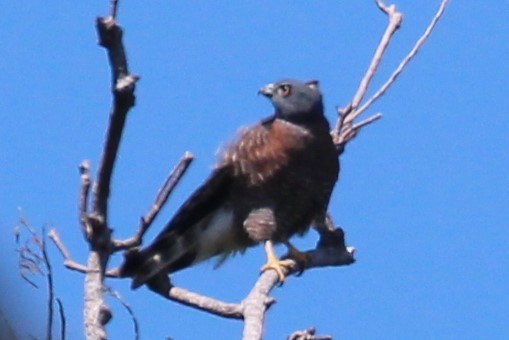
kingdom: Animalia
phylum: Chordata
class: Aves
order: Accipitriformes
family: Accipitridae
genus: Harpagus
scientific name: Harpagus bidentatus
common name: Double-toothed kite
